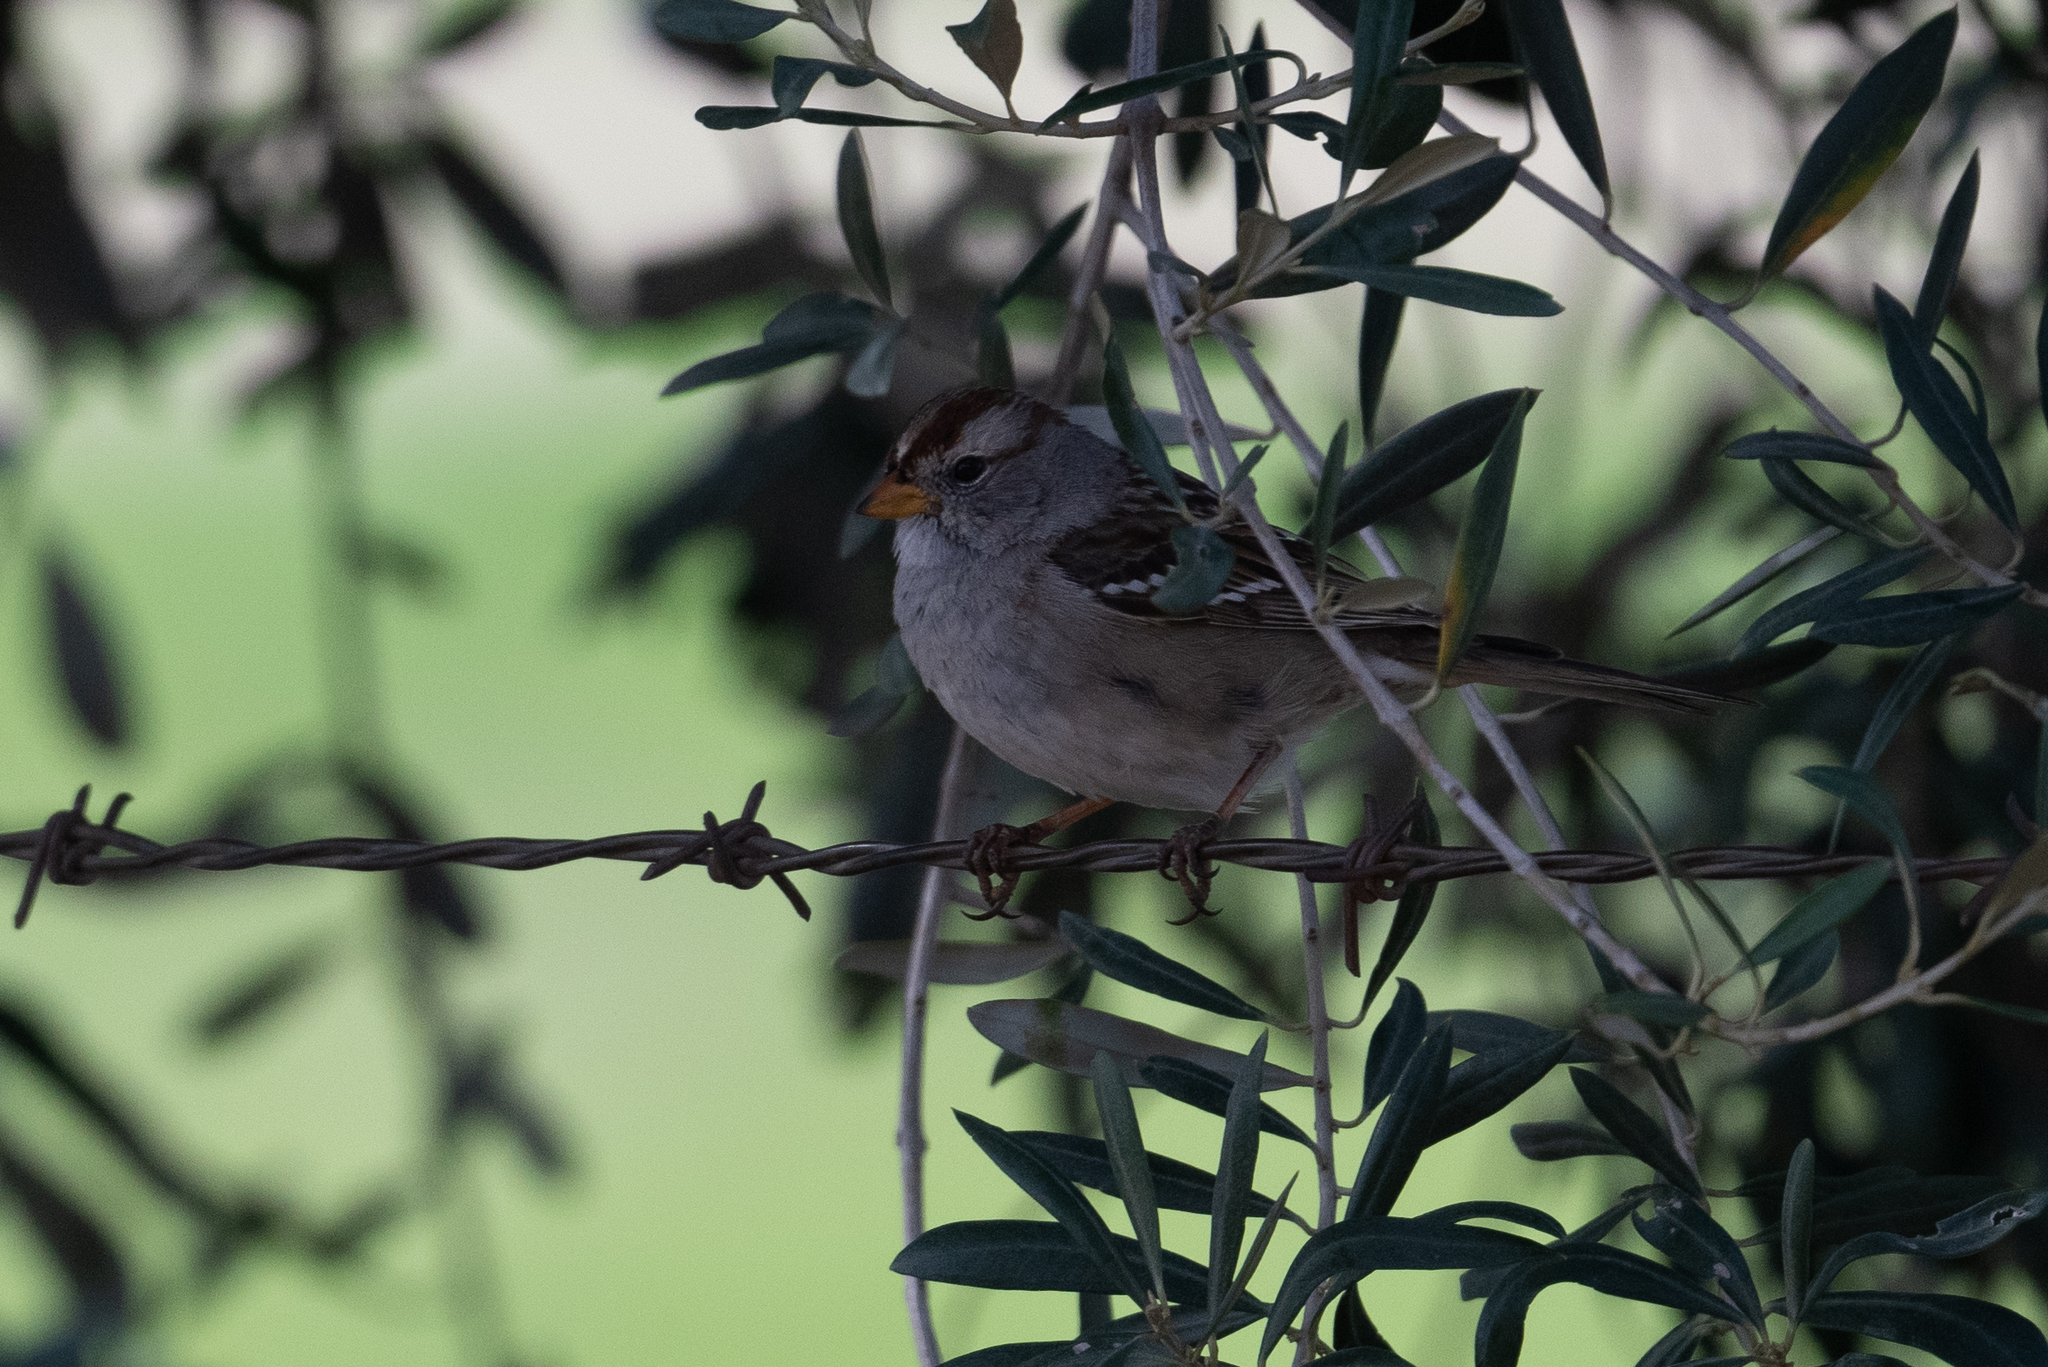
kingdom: Animalia
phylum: Chordata
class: Aves
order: Passeriformes
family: Passerellidae
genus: Zonotrichia
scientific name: Zonotrichia leucophrys
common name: White-crowned sparrow
